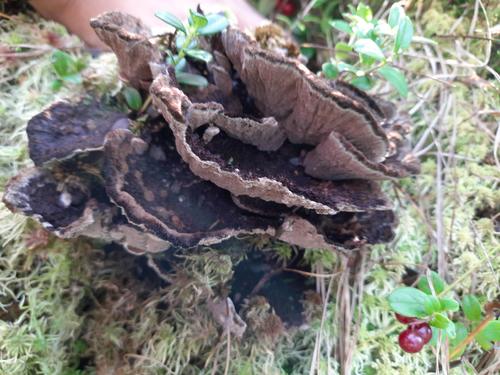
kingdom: Fungi
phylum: Basidiomycota
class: Agaricomycetes
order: Thelephorales
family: Thelephoraceae
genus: Thelephora
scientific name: Thelephora terrestris
